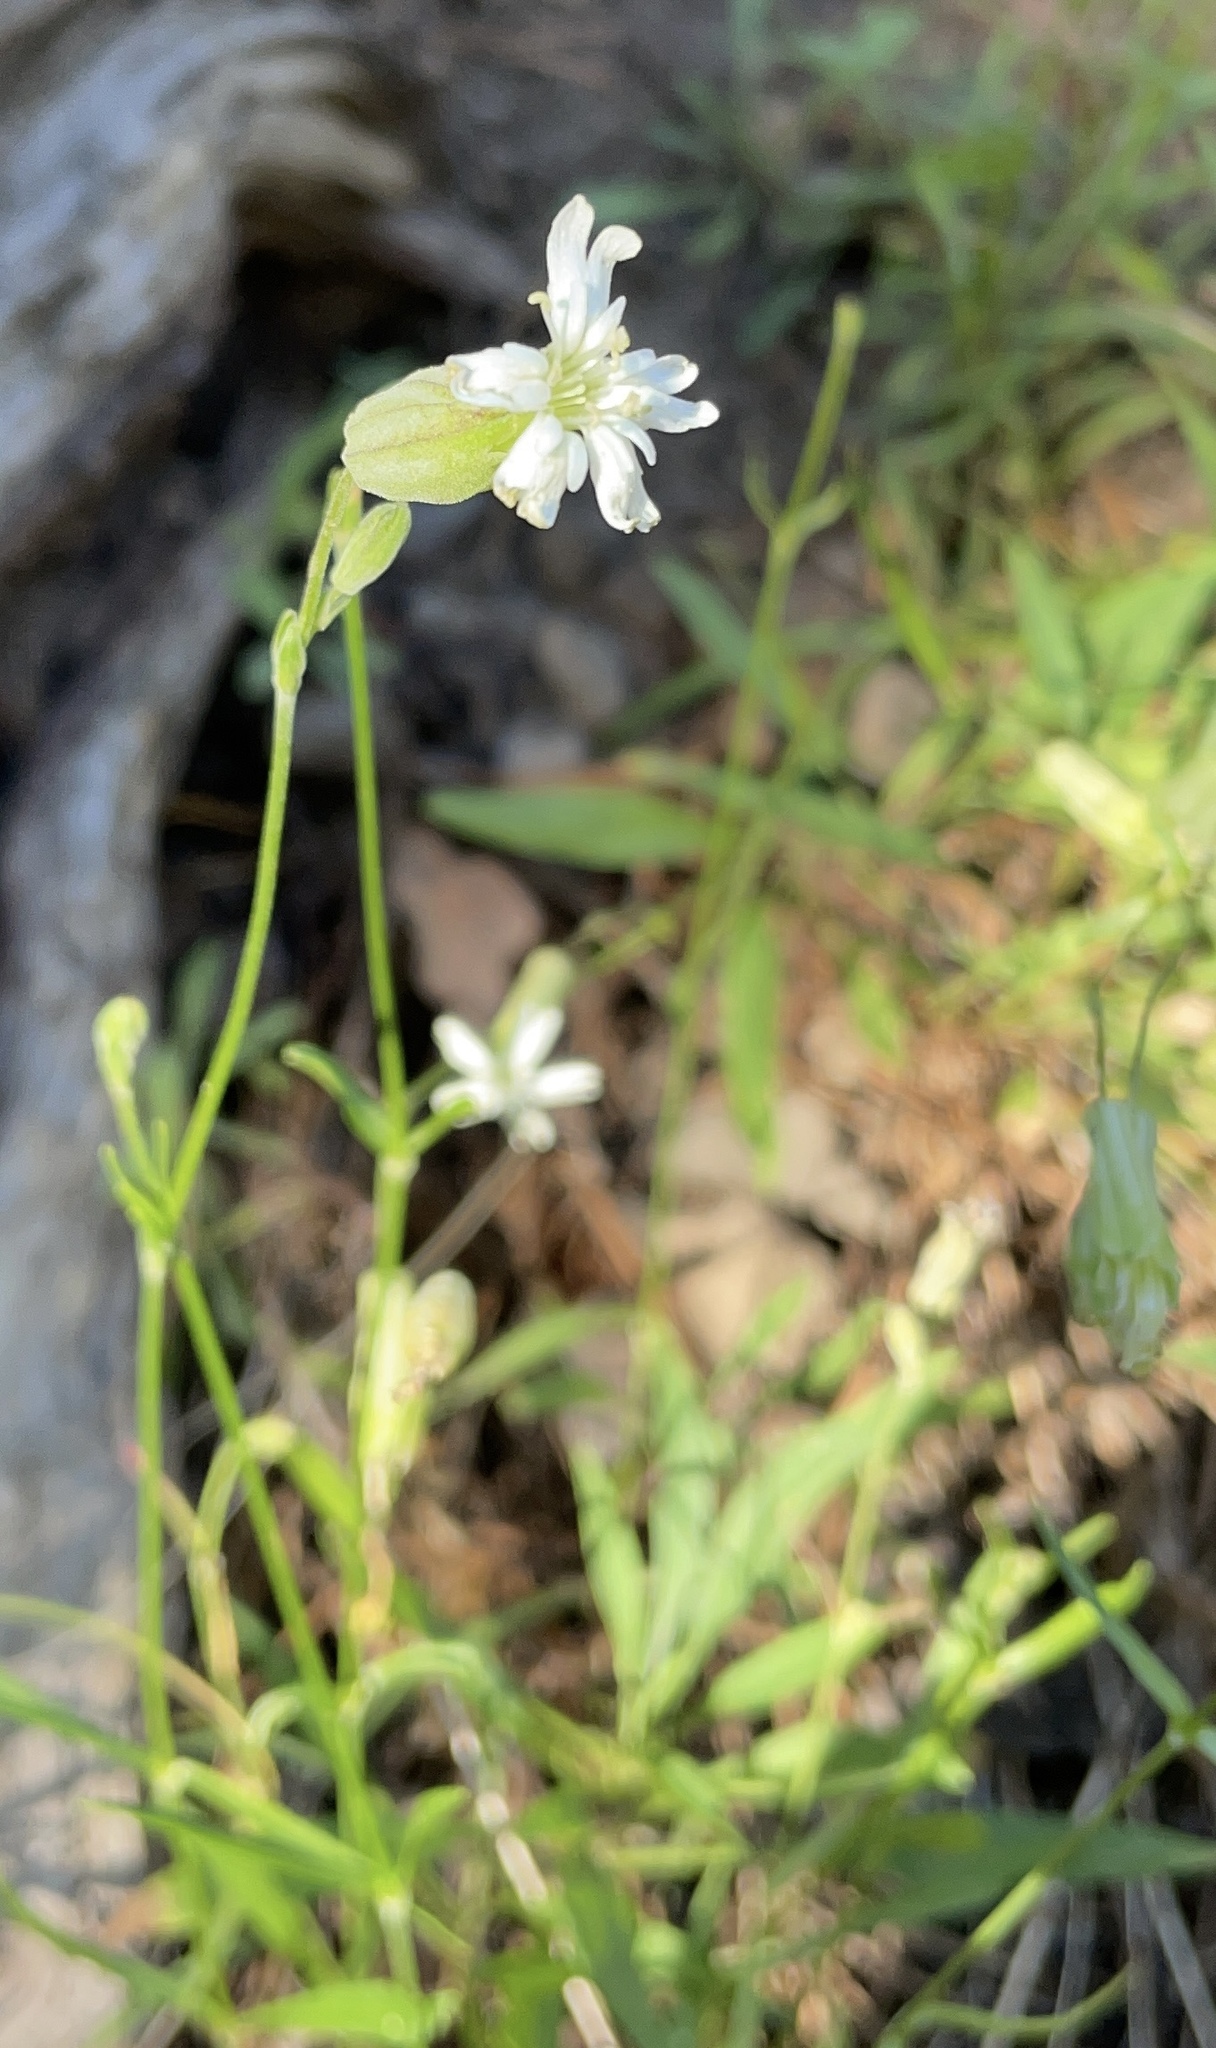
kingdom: Plantae
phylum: Tracheophyta
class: Magnoliopsida
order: Caryophyllales
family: Caryophyllaceae
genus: Silene
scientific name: Silene douglasii
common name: Douglas's catchfly
